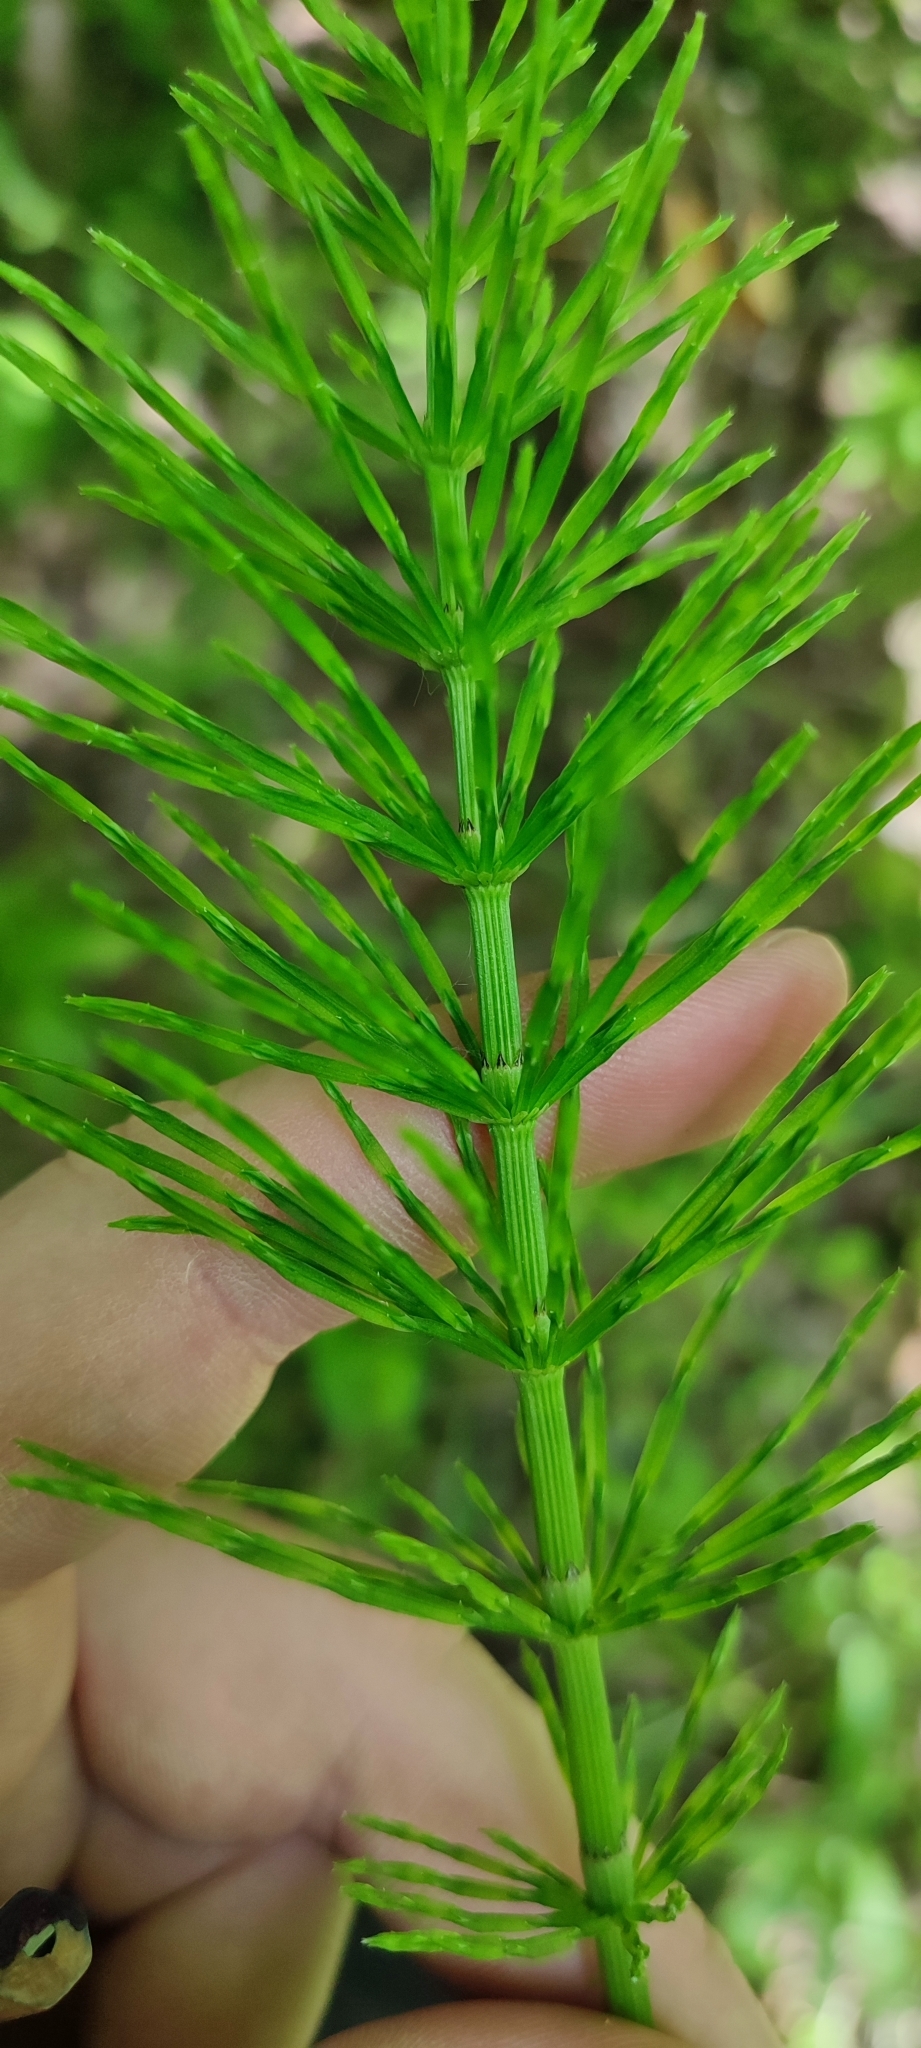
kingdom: Plantae
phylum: Tracheophyta
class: Polypodiopsida
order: Equisetales
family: Equisetaceae
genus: Equisetum
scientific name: Equisetum arvense
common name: Field horsetail
